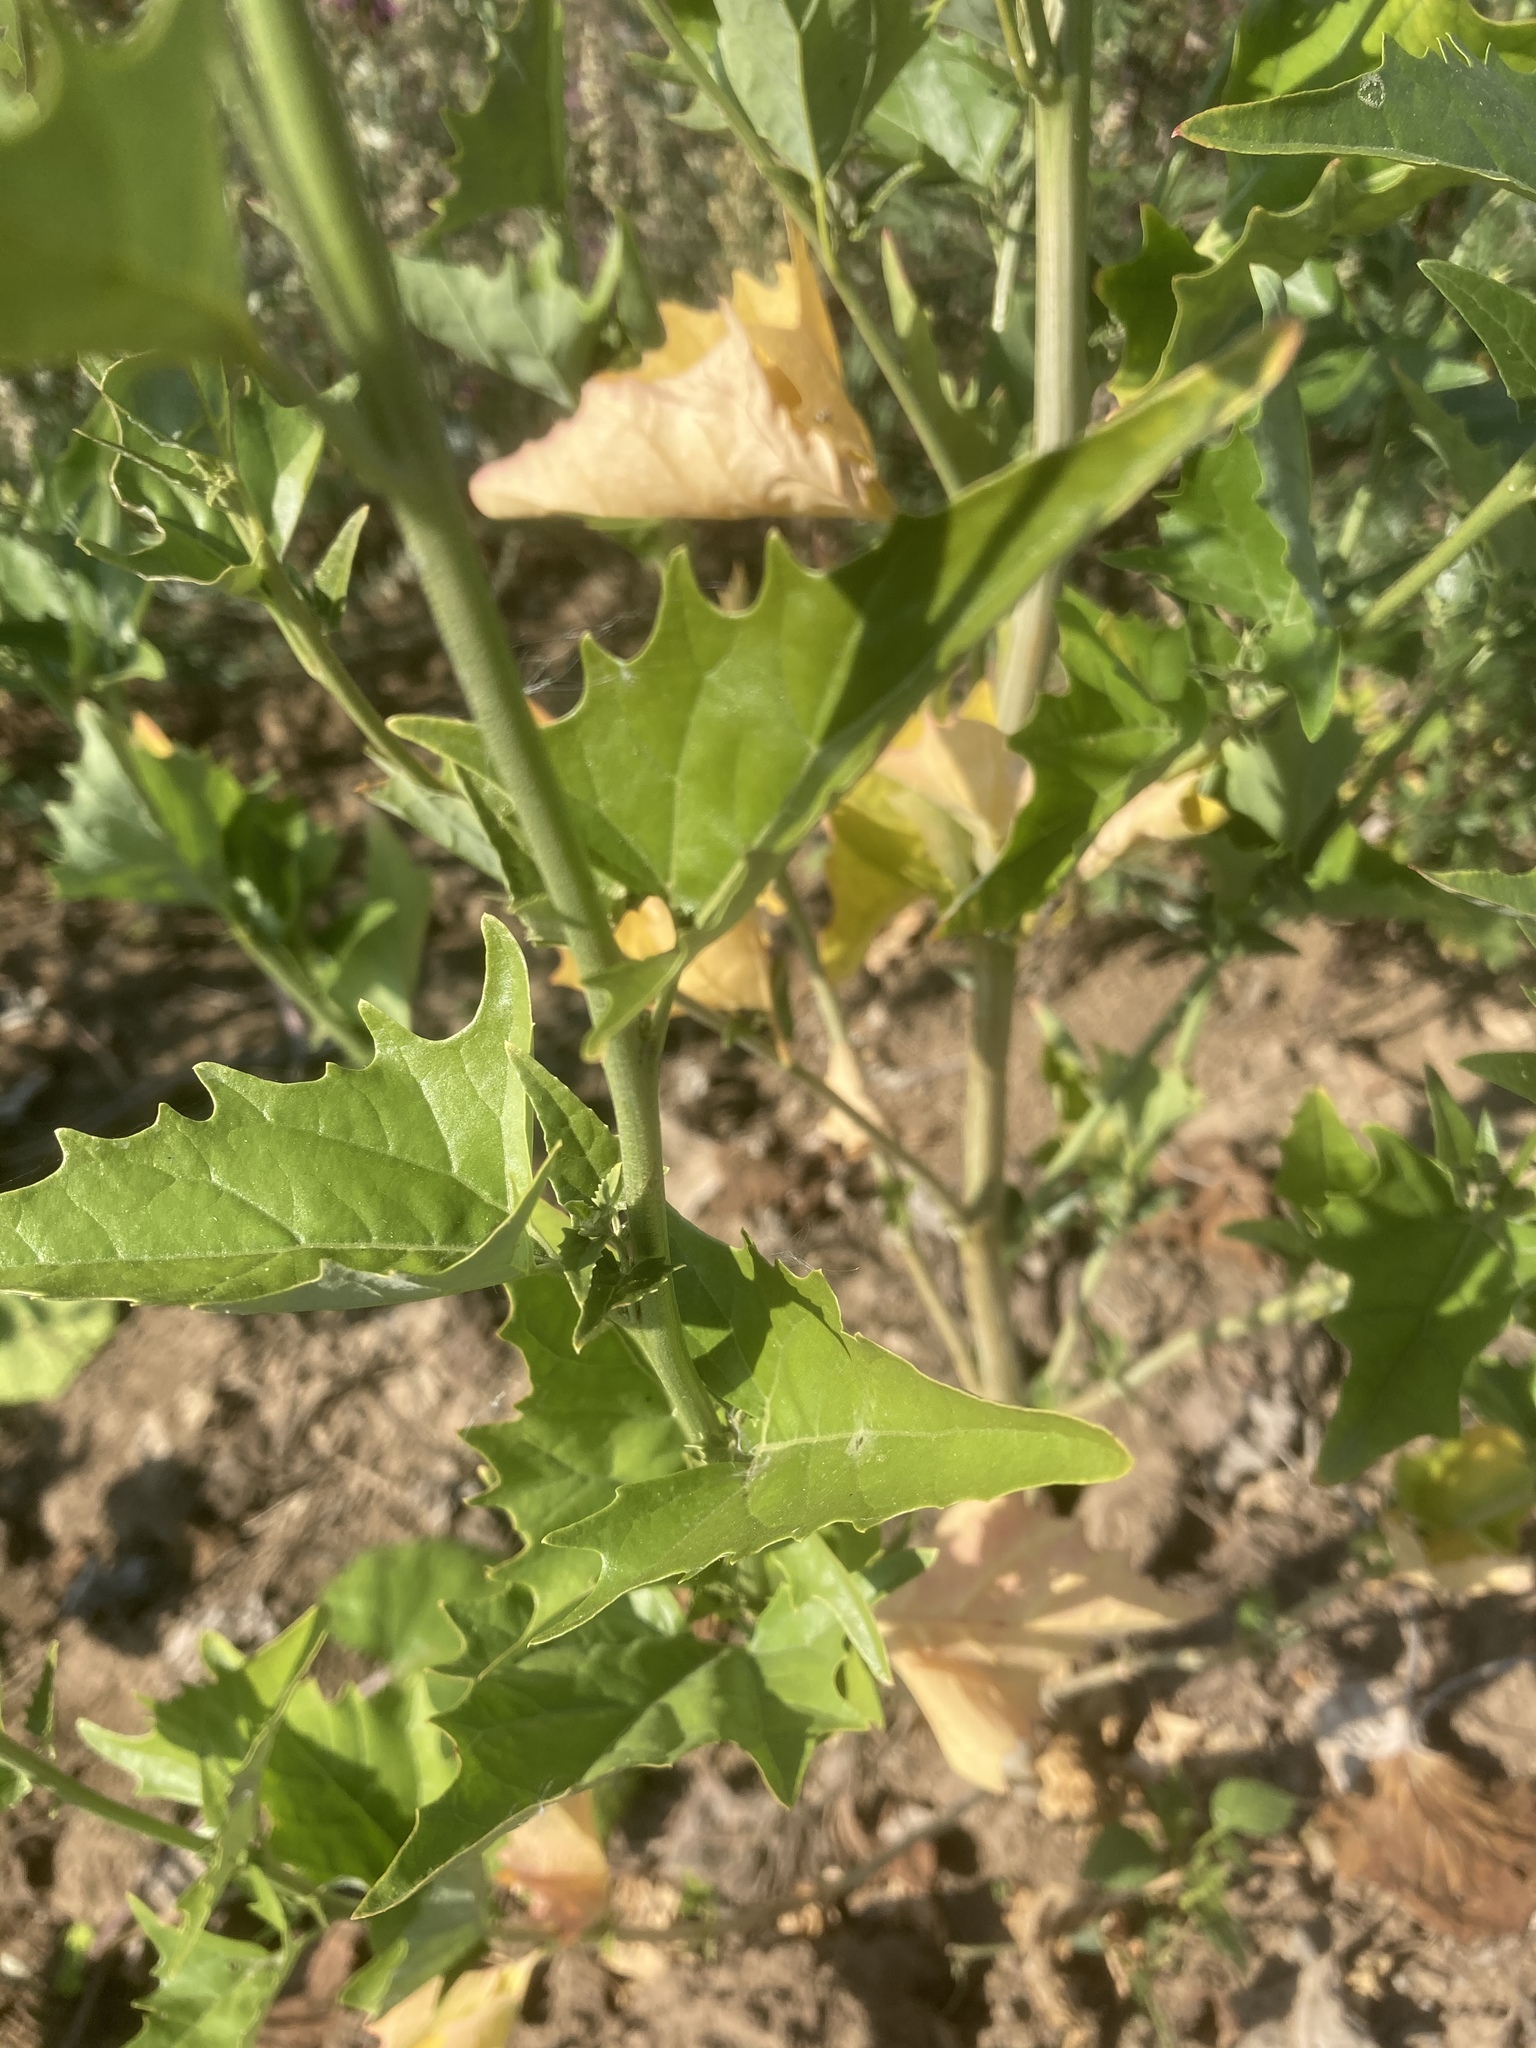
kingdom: Plantae
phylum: Tracheophyta
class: Magnoliopsida
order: Caryophyllales
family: Amaranthaceae
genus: Atriplex
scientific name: Atriplex sagittata
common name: Purple orache
